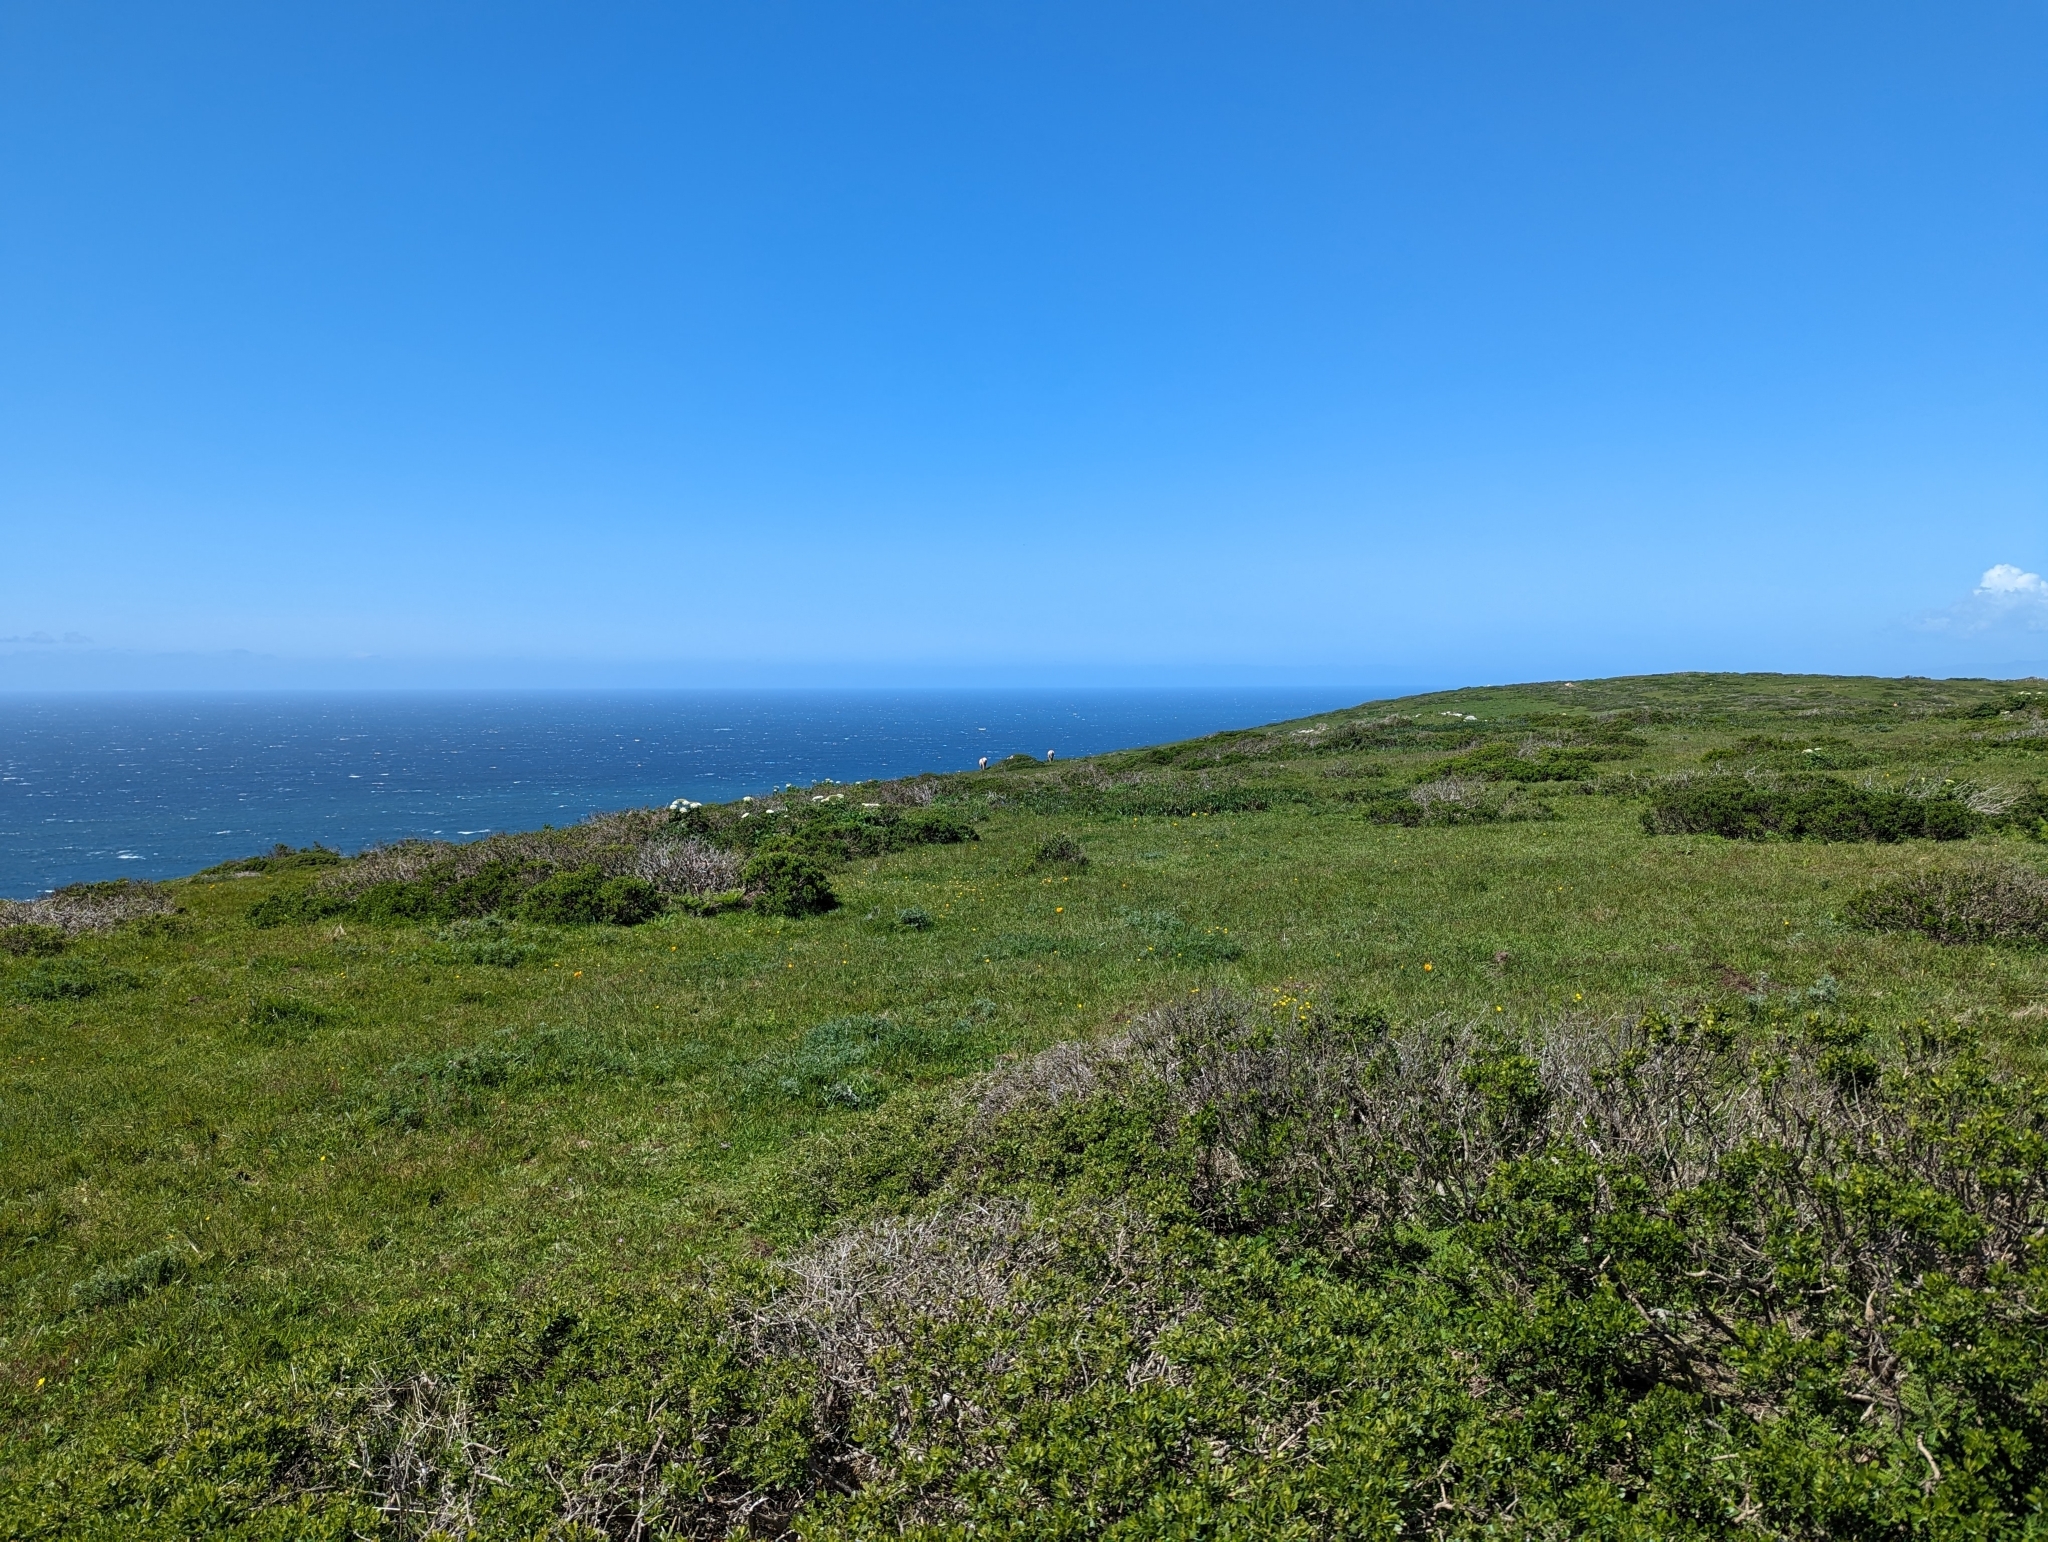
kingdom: Animalia
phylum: Chordata
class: Mammalia
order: Artiodactyla
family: Cervidae
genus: Cervus
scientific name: Cervus elaphus
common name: Red deer
